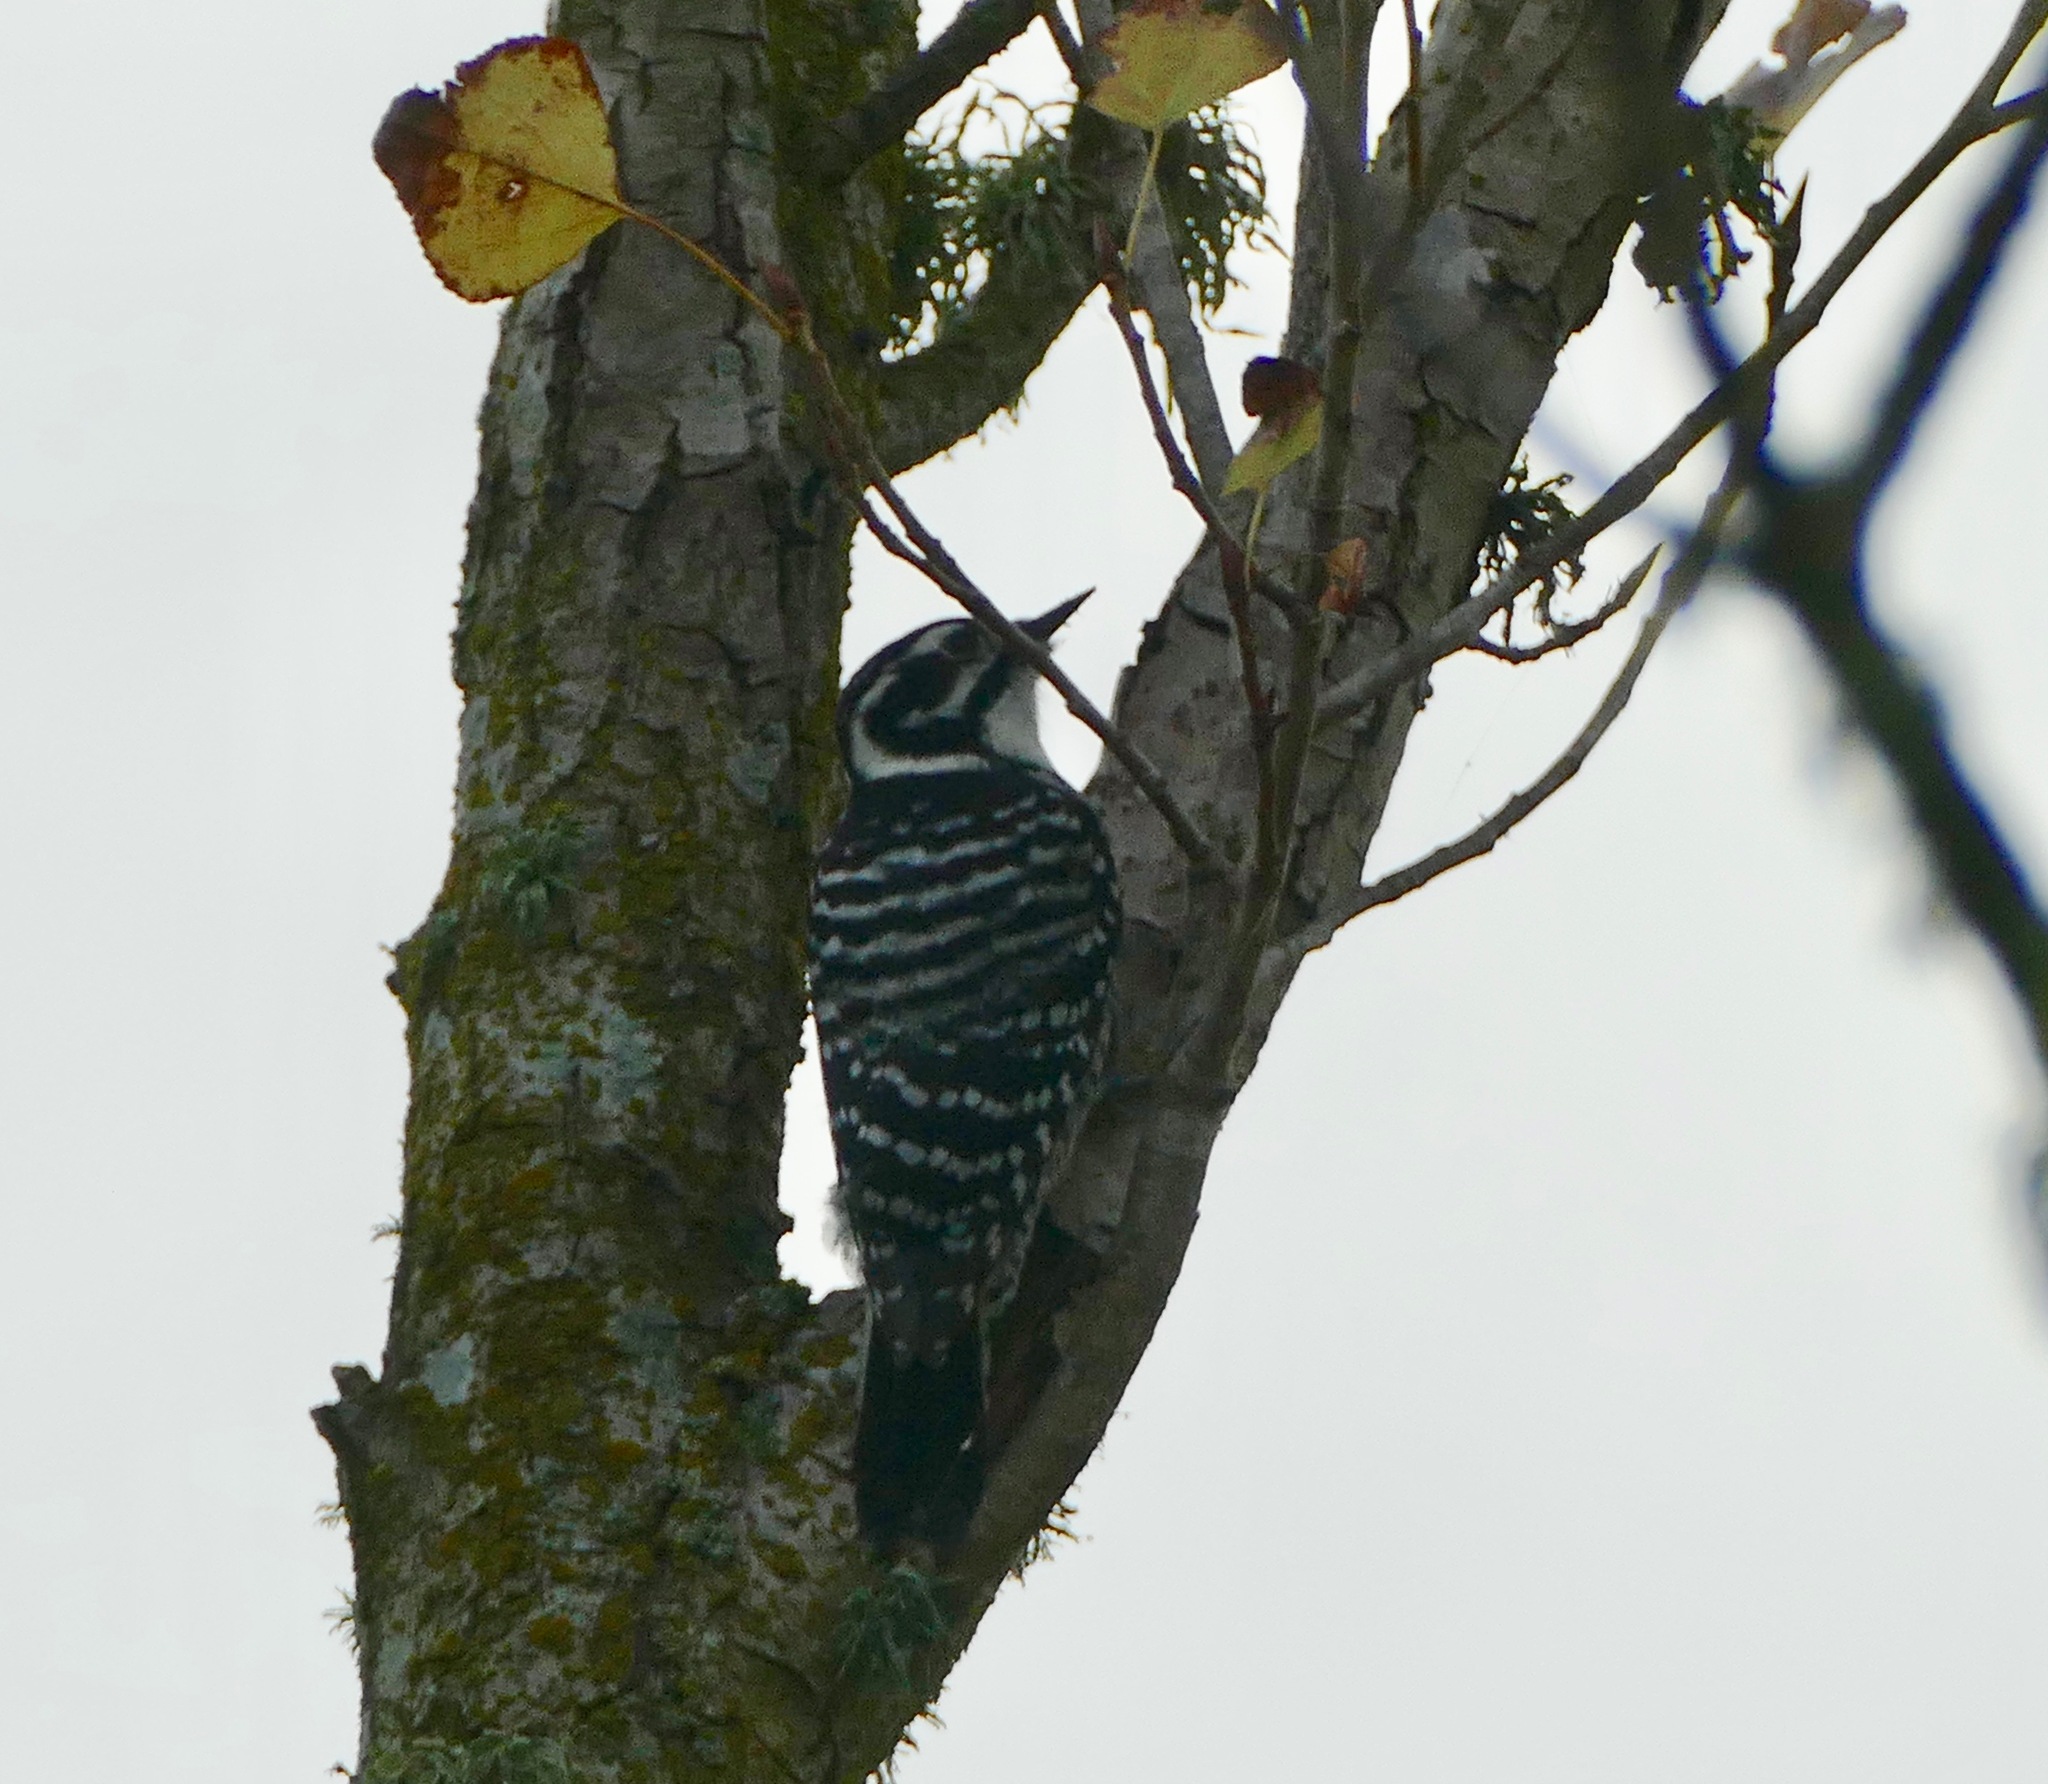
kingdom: Animalia
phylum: Chordata
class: Aves
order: Piciformes
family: Picidae
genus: Dryobates
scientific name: Dryobates nuttallii
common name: Nuttall's woodpecker
